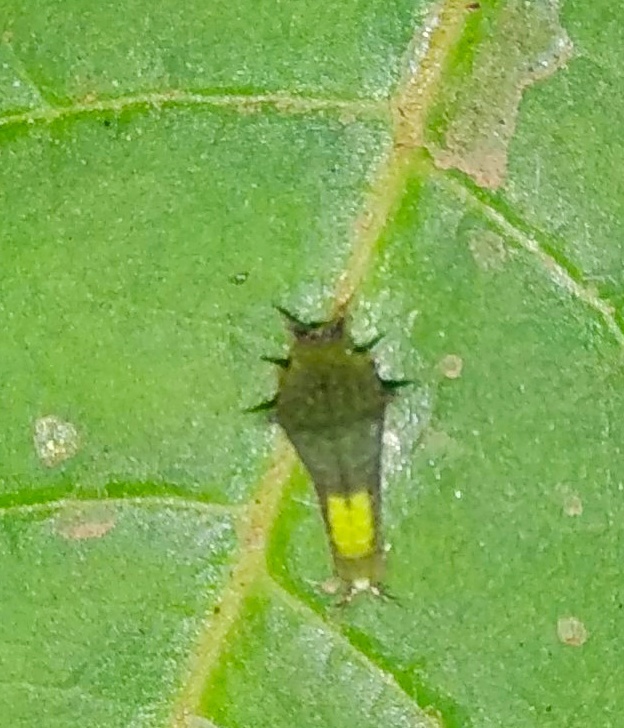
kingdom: Animalia
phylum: Arthropoda
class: Insecta
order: Lepidoptera
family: Papilionidae
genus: Graphium
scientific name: Graphium agamemnon
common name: Tailed jay
